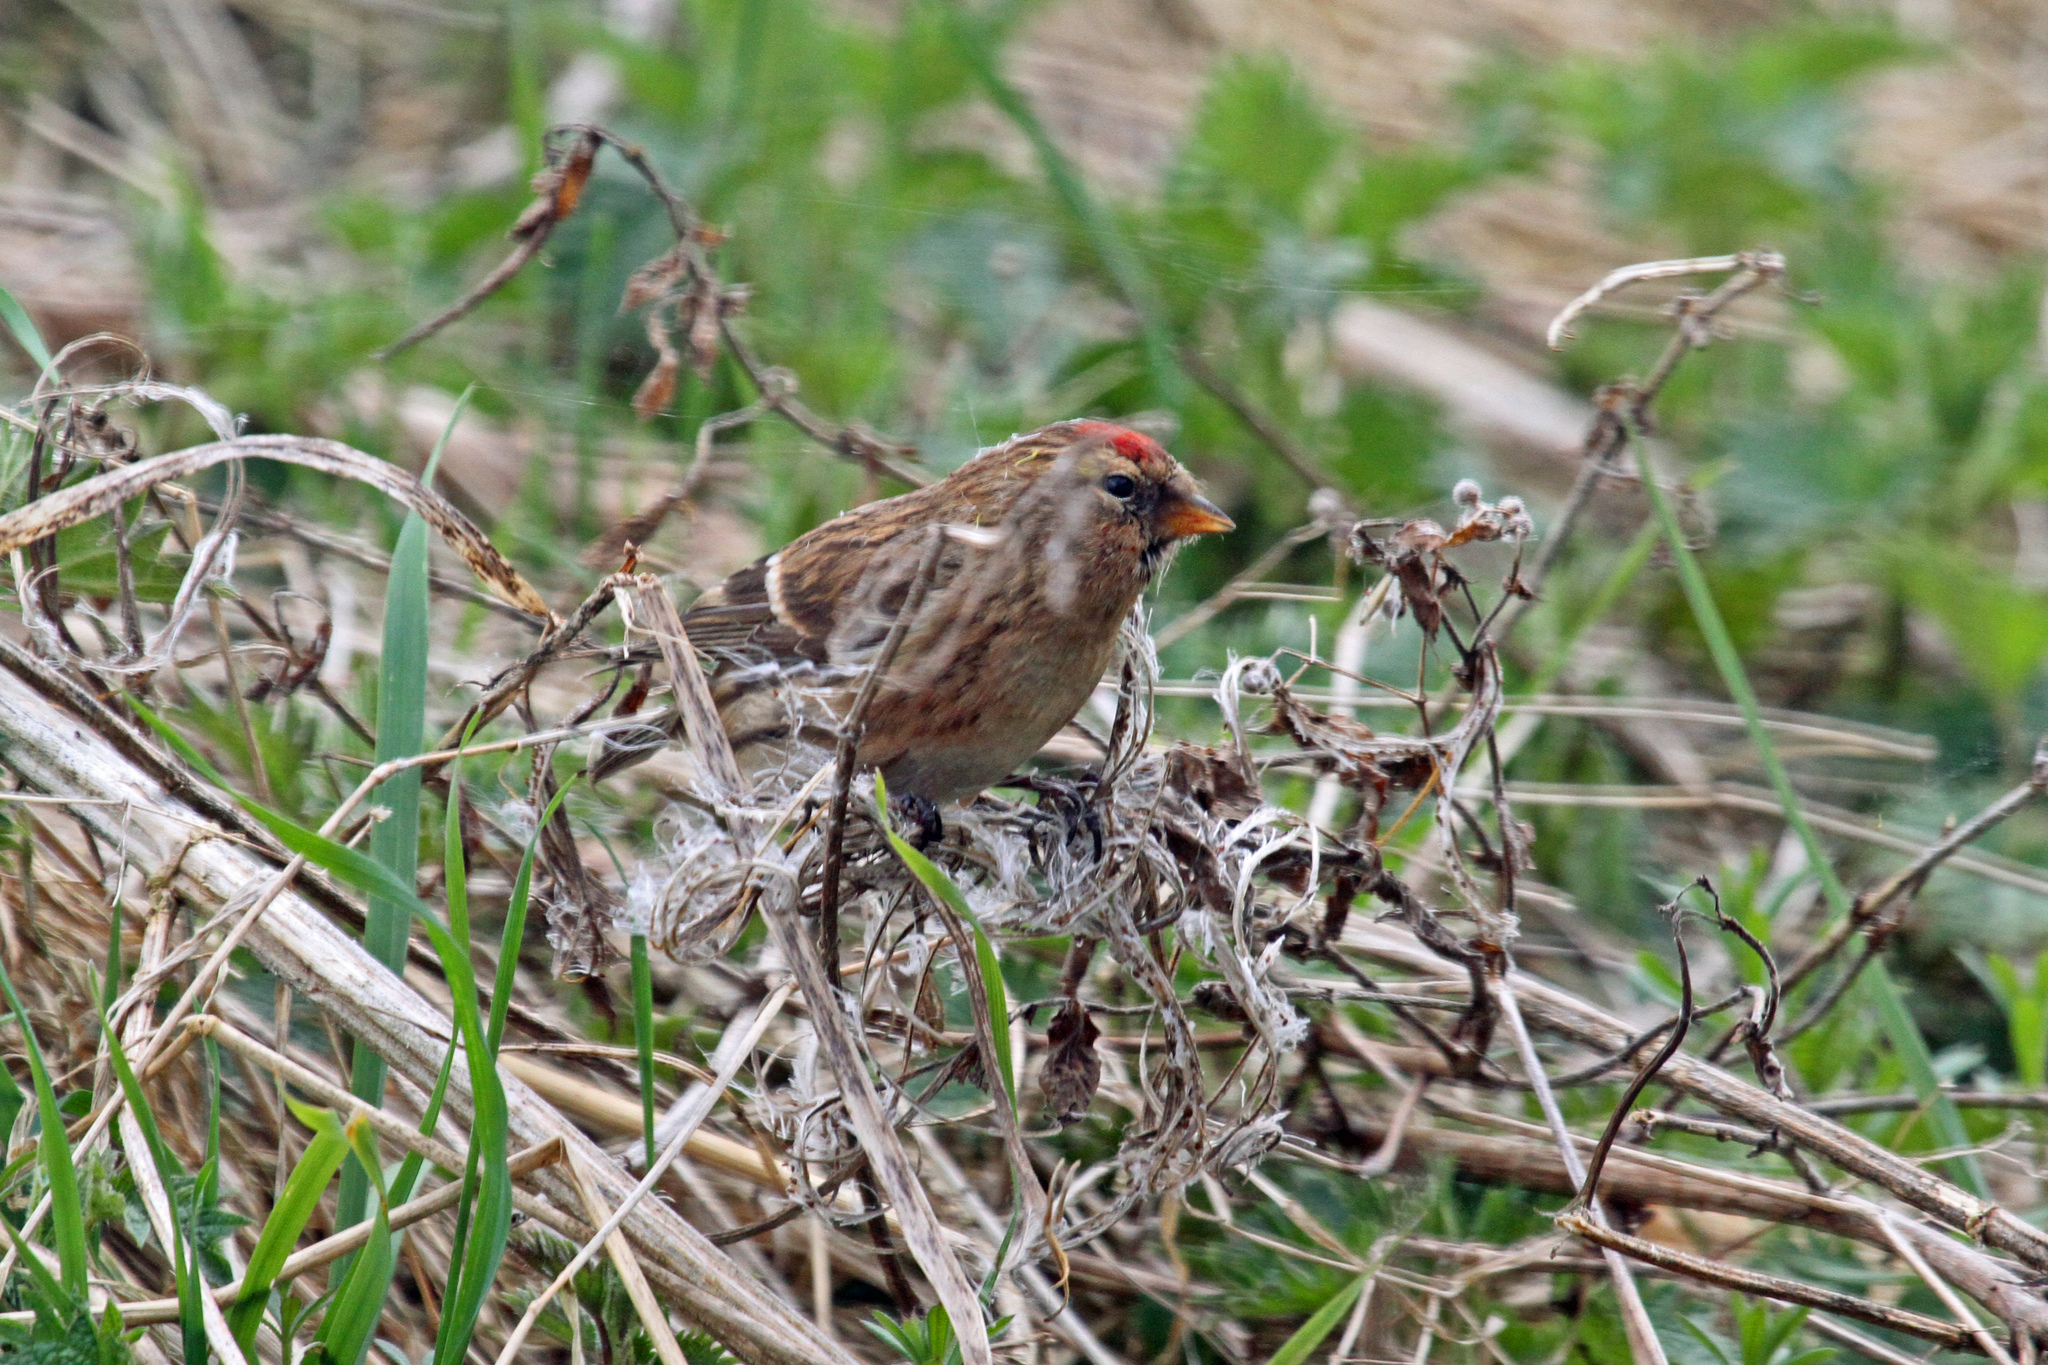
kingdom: Animalia
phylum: Chordata
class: Aves
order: Passeriformes
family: Fringillidae
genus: Acanthis
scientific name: Acanthis flammea
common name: Common redpoll
